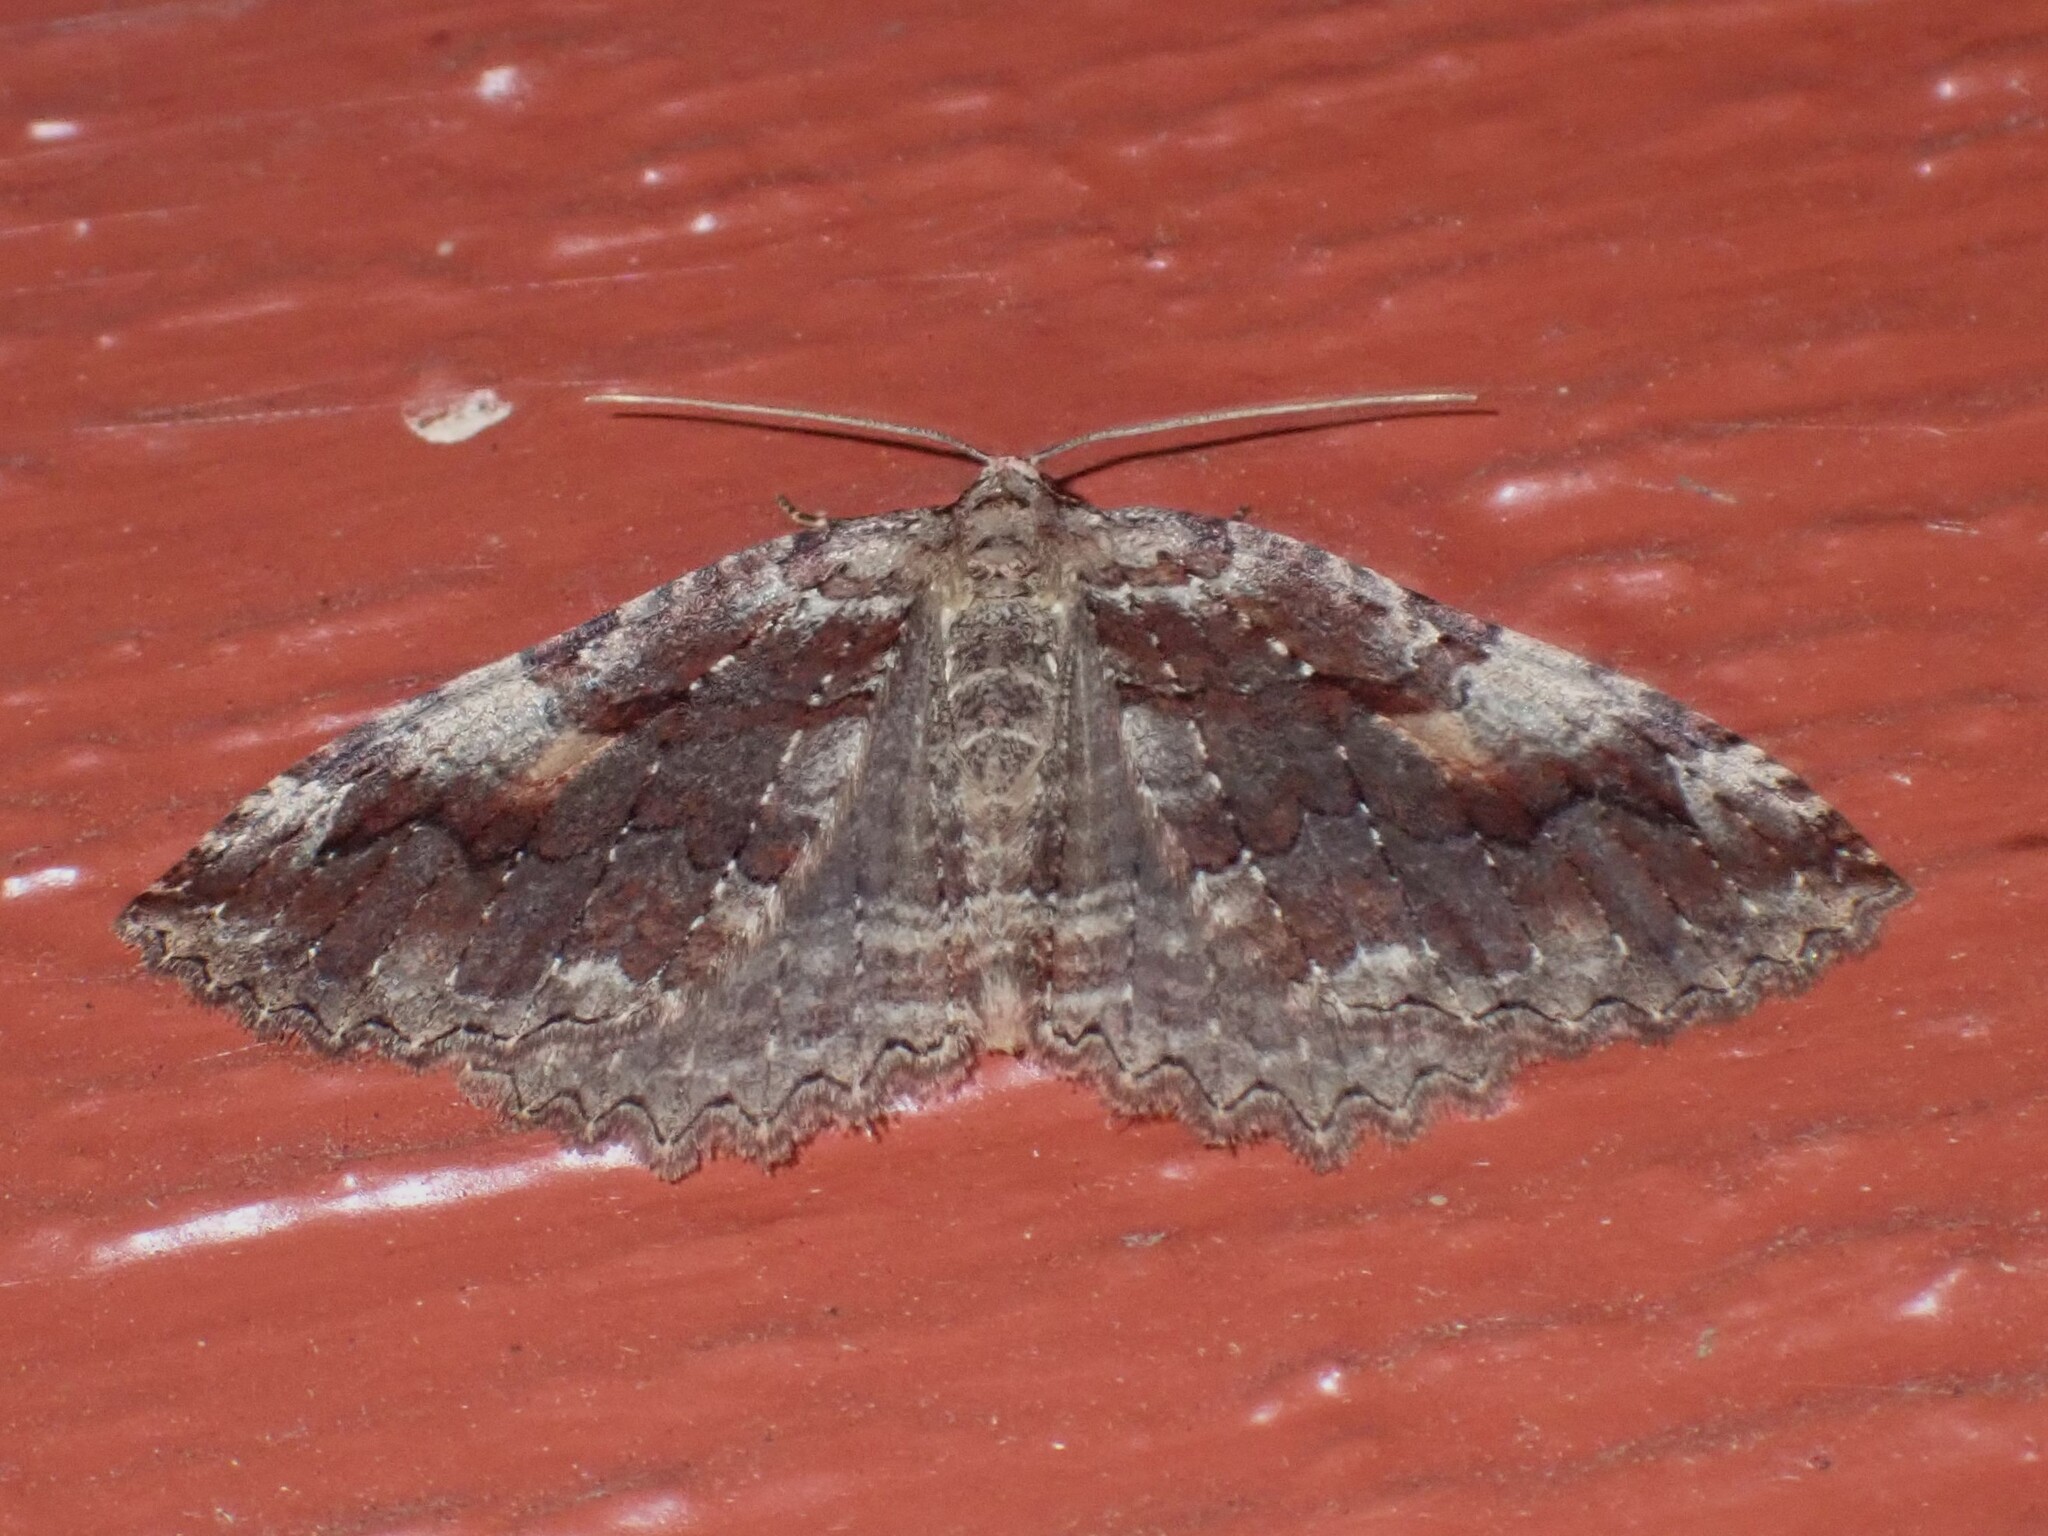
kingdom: Animalia
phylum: Arthropoda
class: Insecta
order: Lepidoptera
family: Geometridae
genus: Triphosa
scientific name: Triphosa haesitata
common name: Tissue moth
